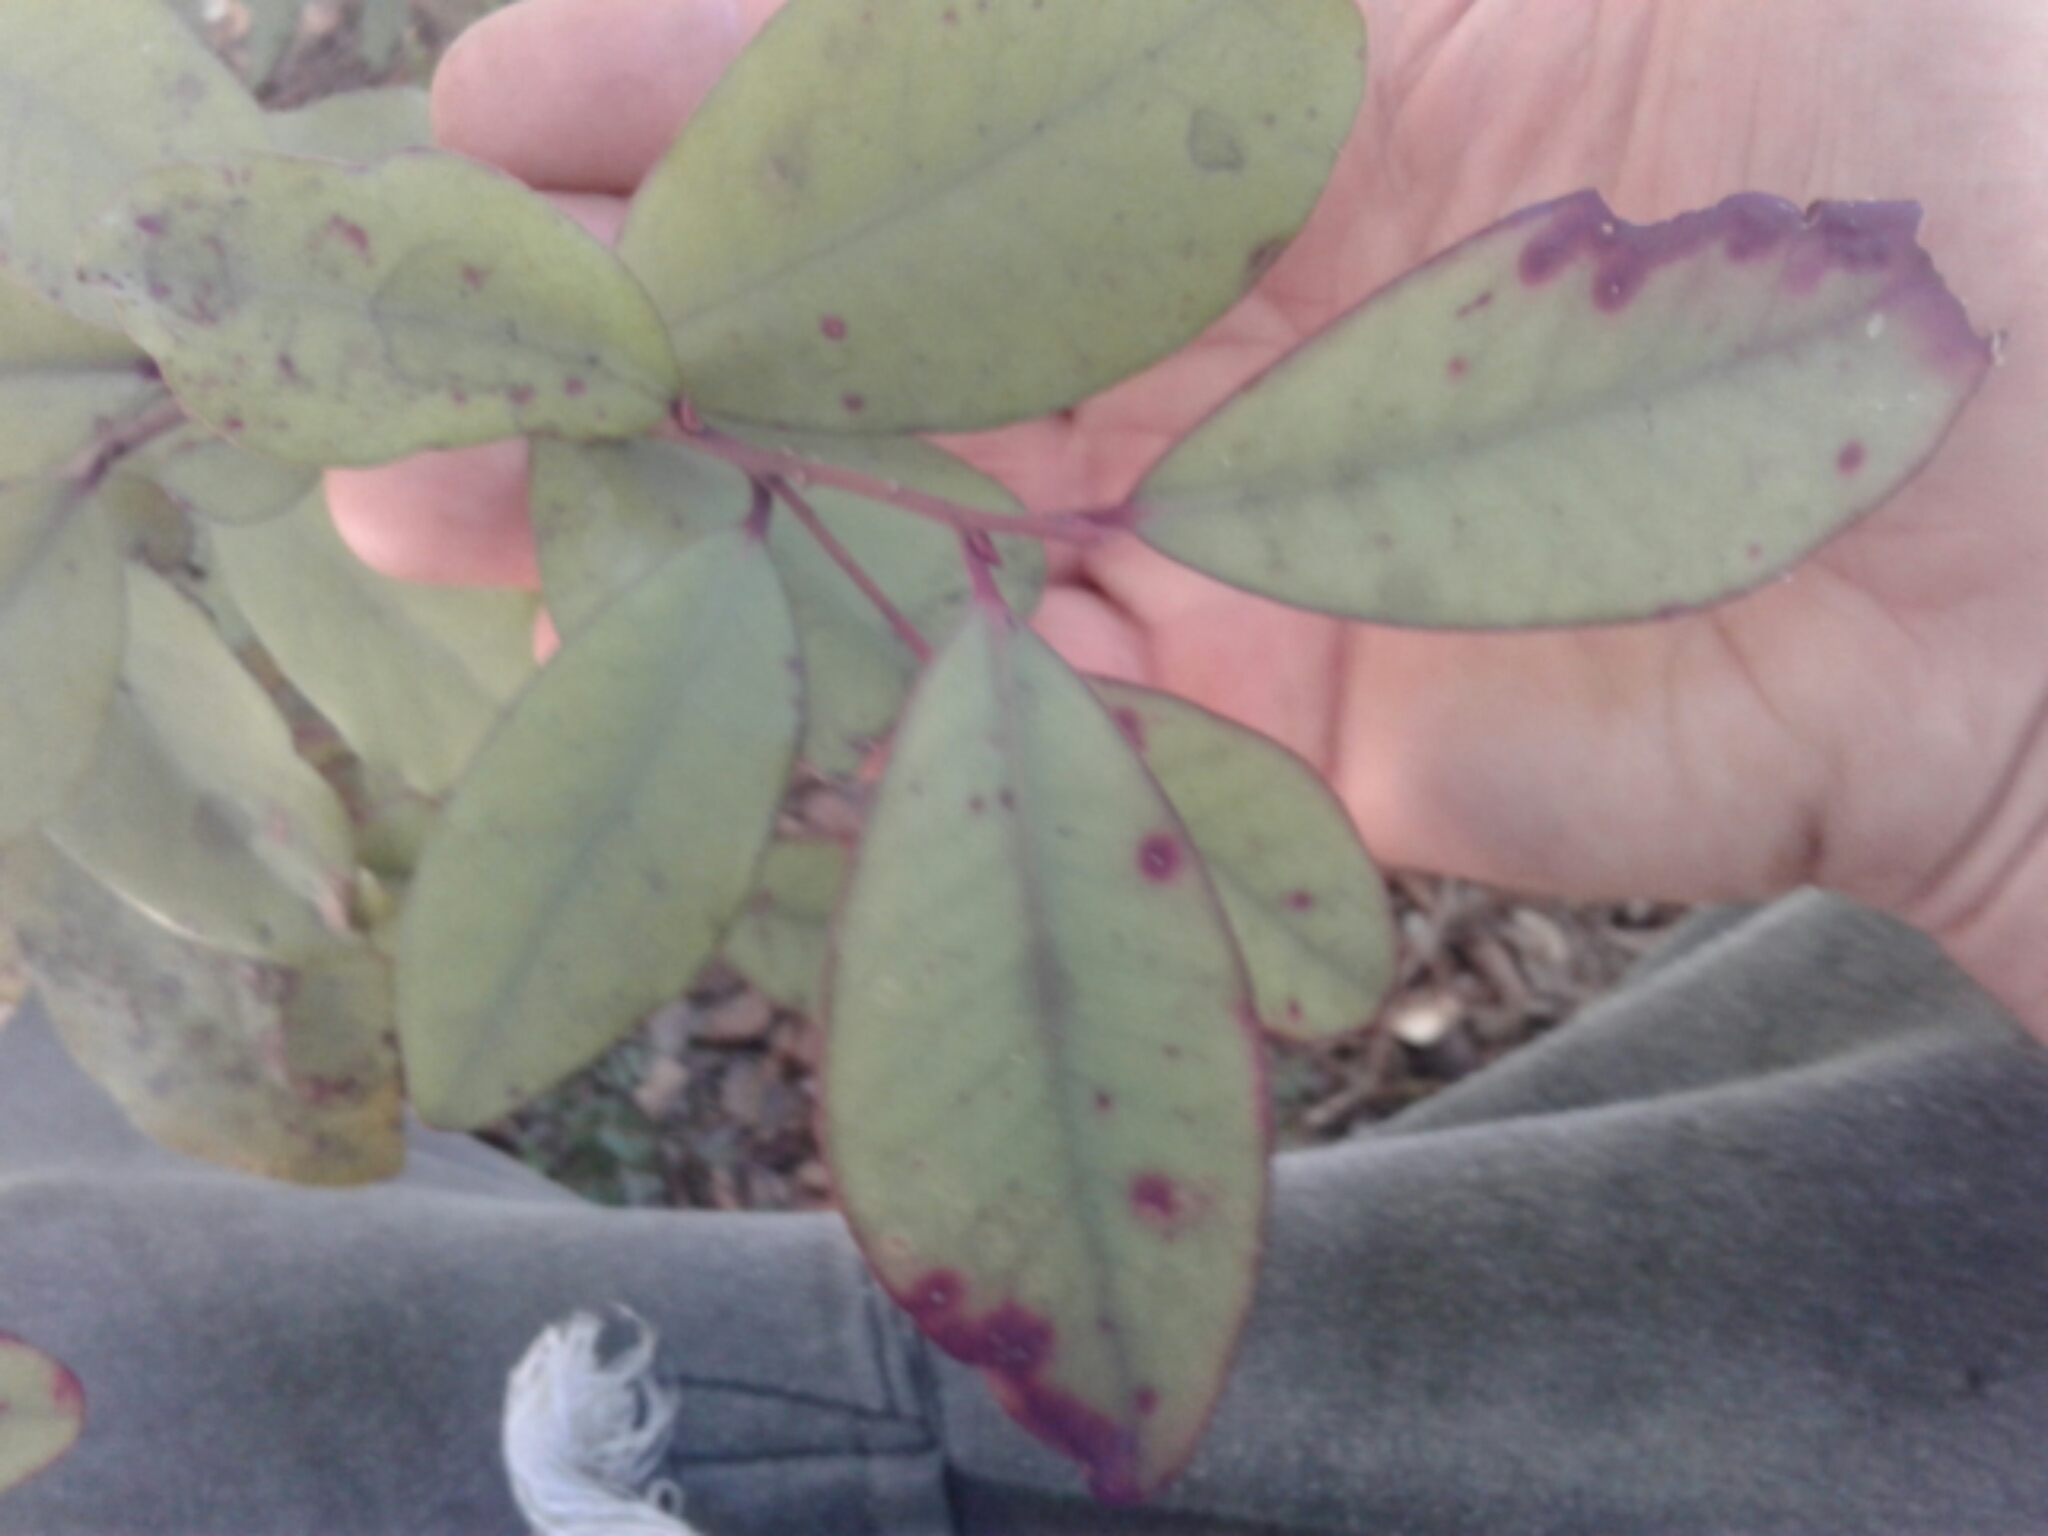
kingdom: Plantae
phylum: Tracheophyta
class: Magnoliopsida
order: Canellales
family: Winteraceae
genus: Pseudowintera
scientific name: Pseudowintera colorata
